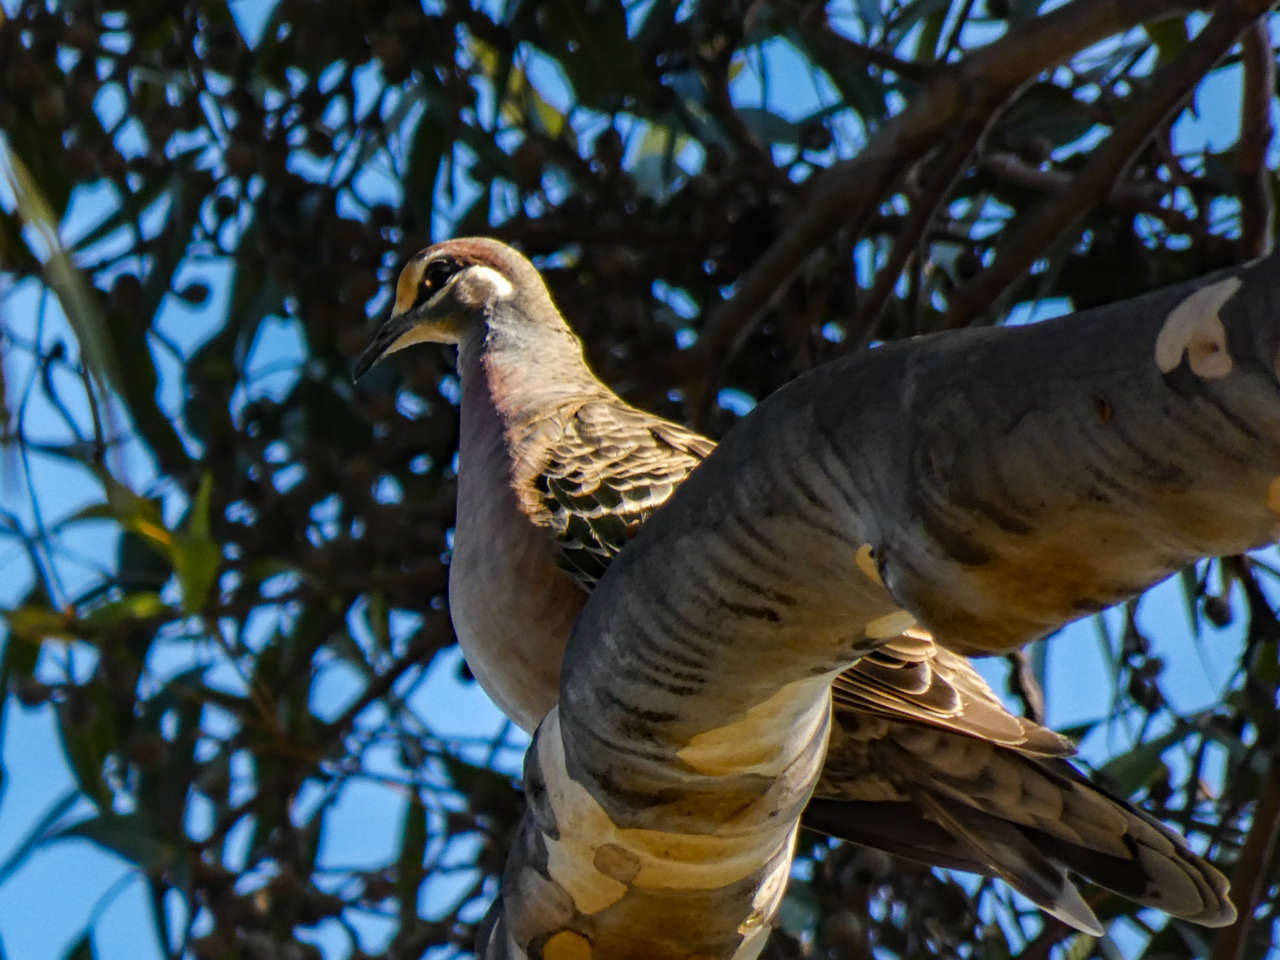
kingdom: Animalia
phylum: Chordata
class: Aves
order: Columbiformes
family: Columbidae
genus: Phaps
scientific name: Phaps chalcoptera
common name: Common bronzewing
